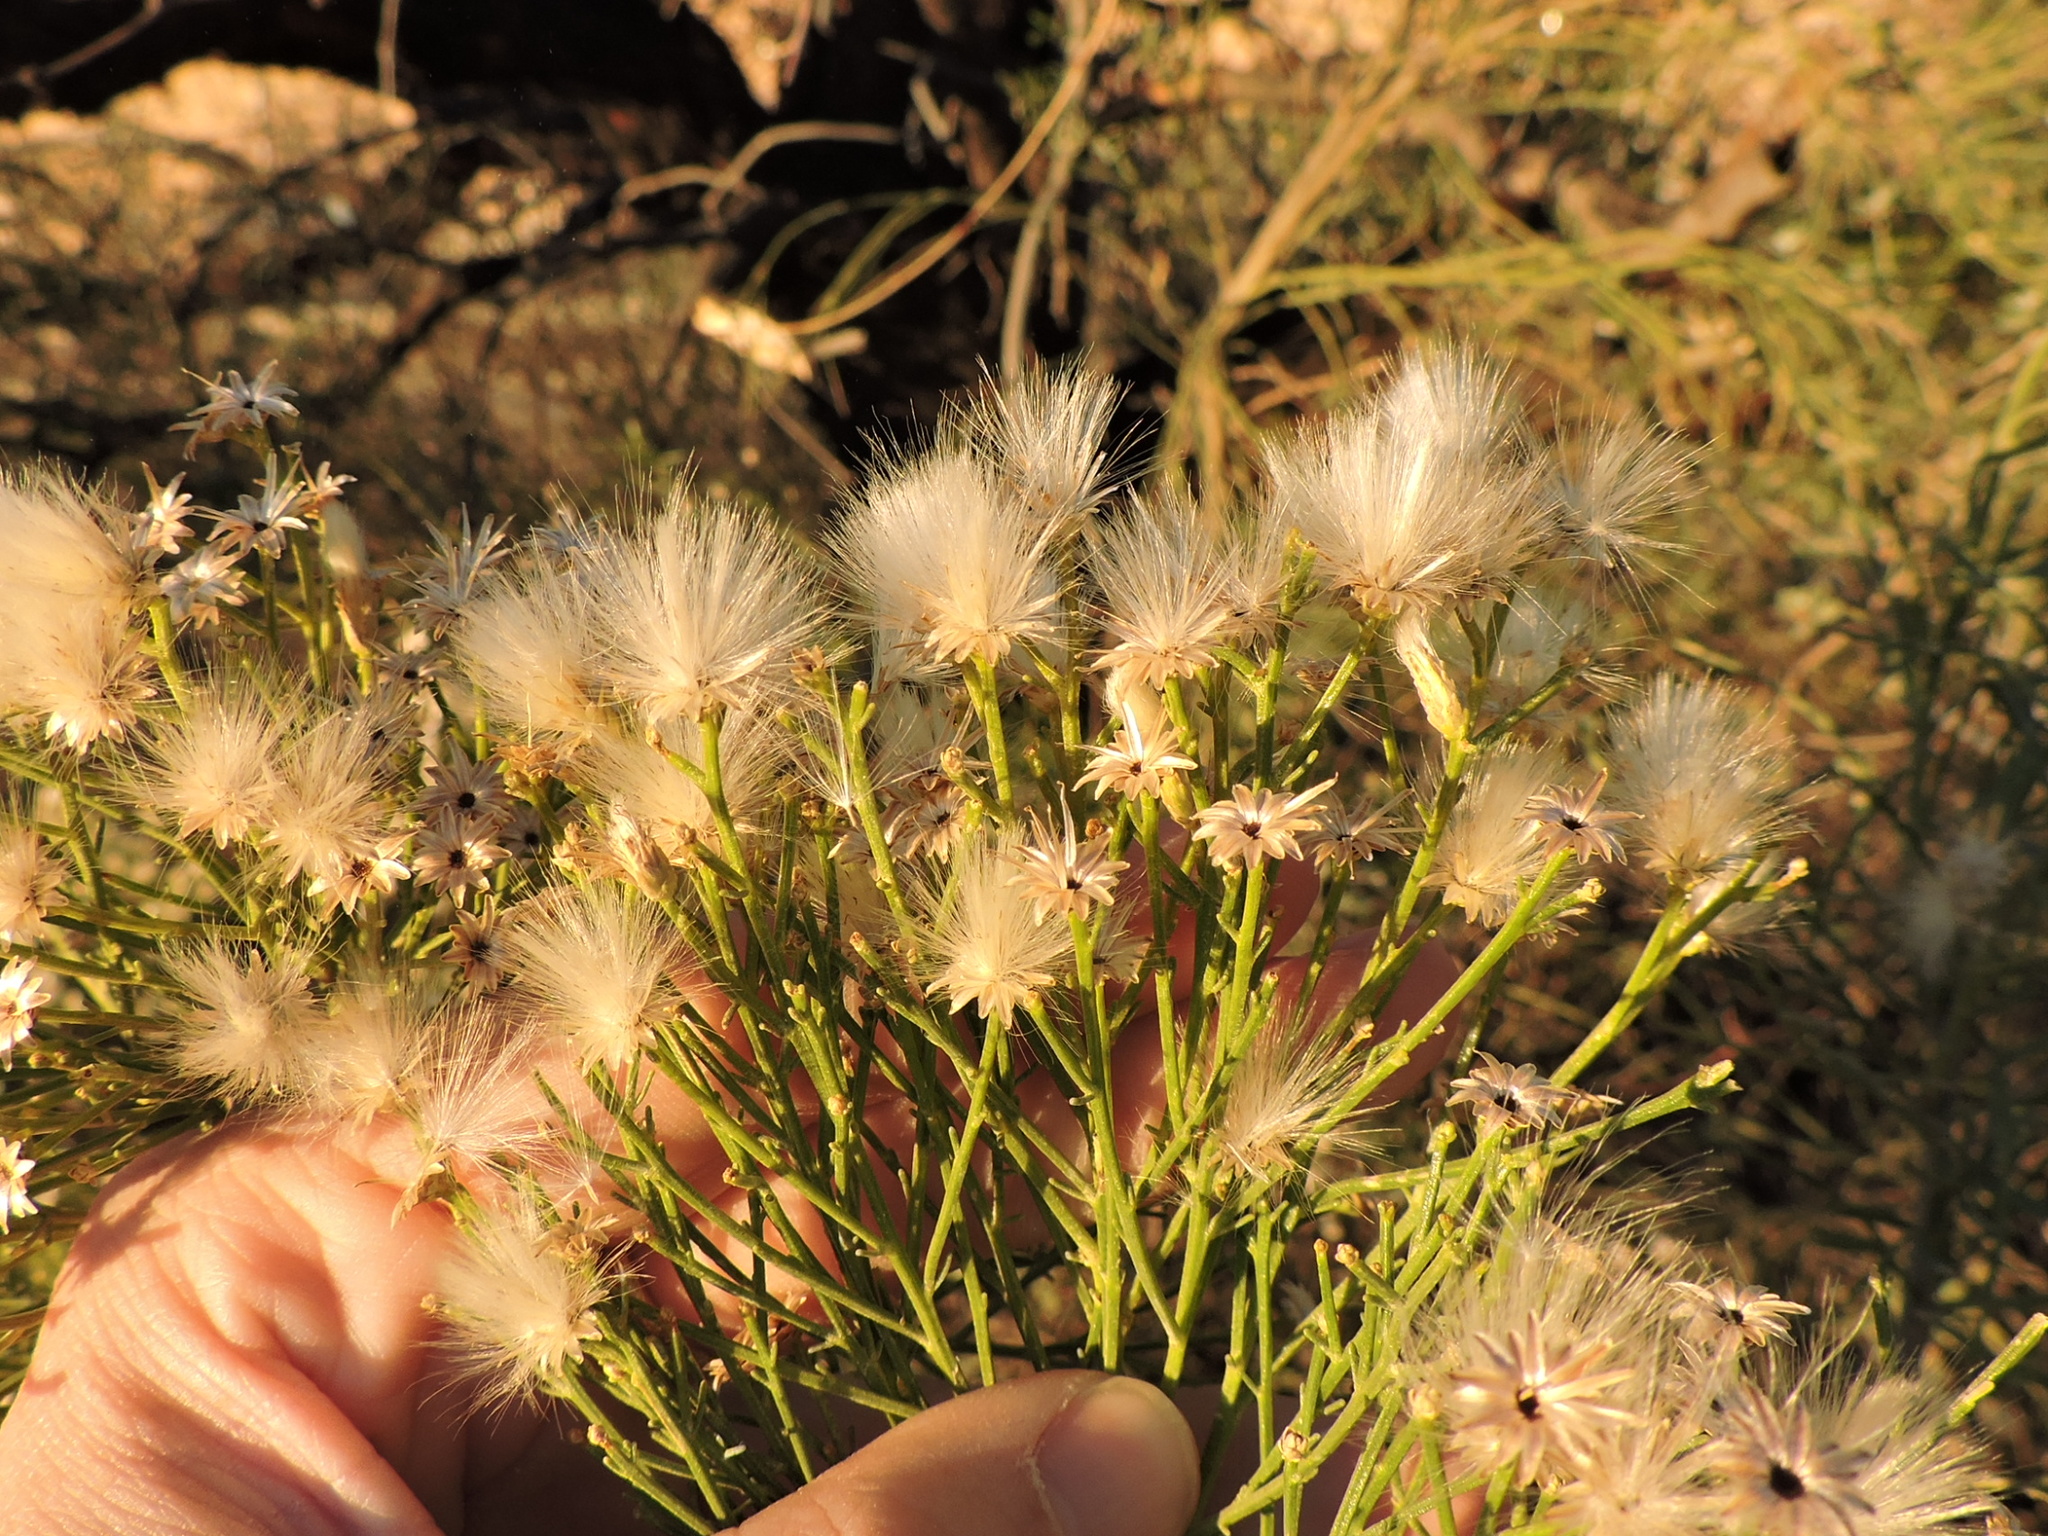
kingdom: Plantae
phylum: Tracheophyta
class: Magnoliopsida
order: Asterales
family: Asteraceae
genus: Baccharis
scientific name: Baccharis sarothroides
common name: Desert-broom
